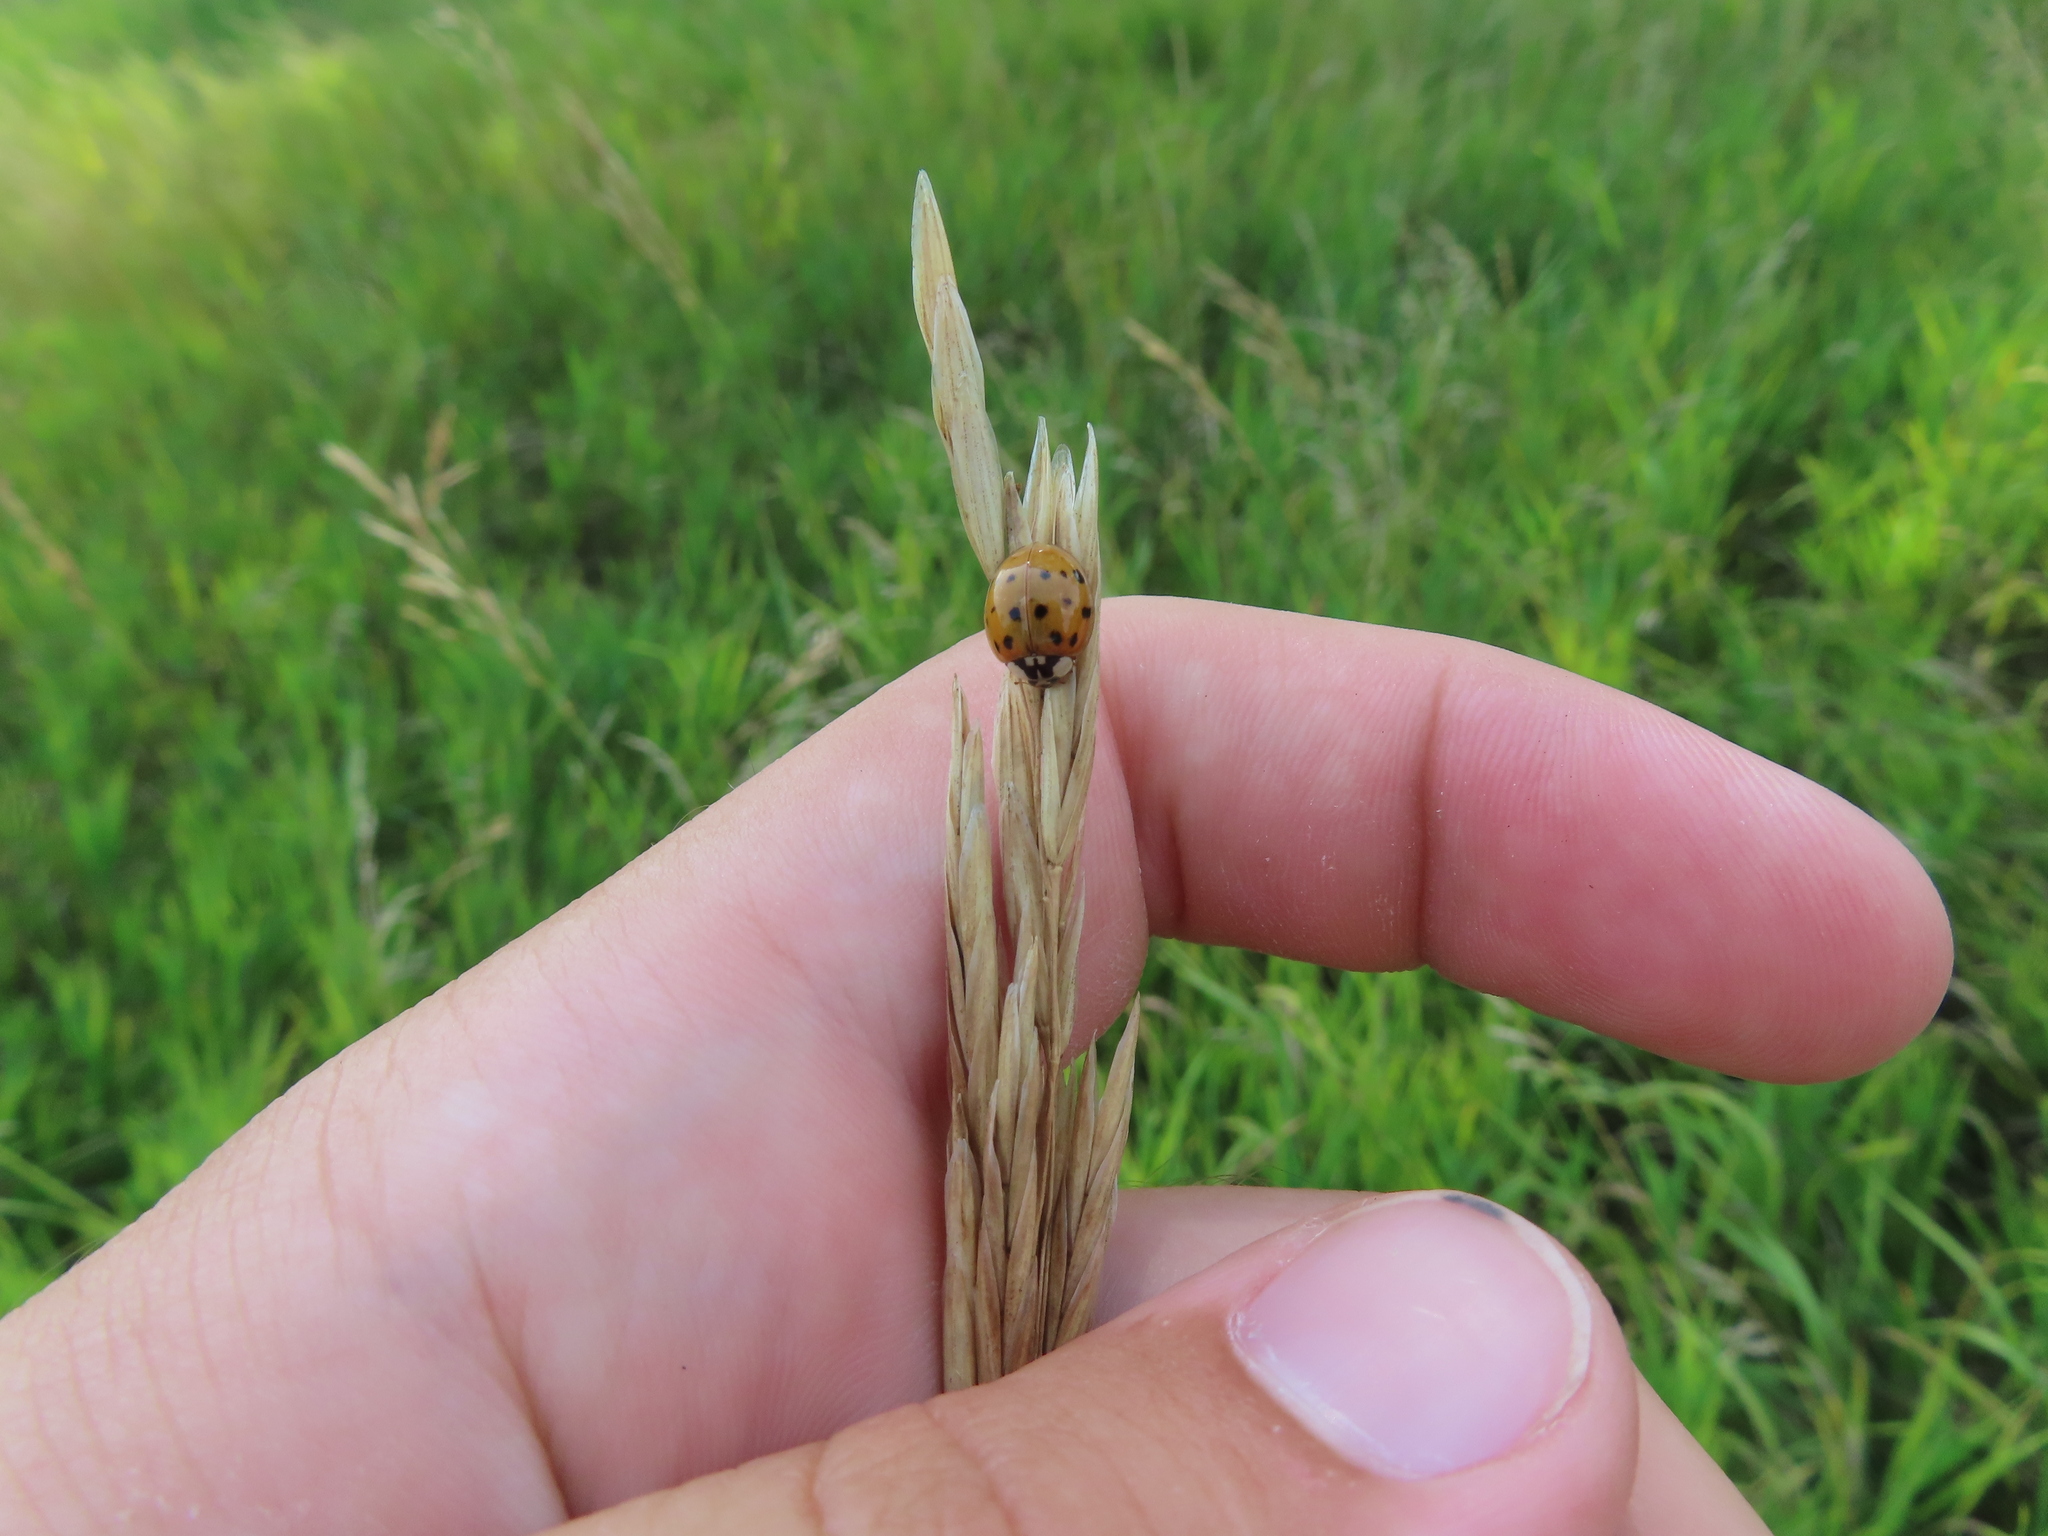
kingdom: Animalia
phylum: Arthropoda
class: Insecta
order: Coleoptera
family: Coccinellidae
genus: Harmonia
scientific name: Harmonia axyridis
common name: Harlequin ladybird
